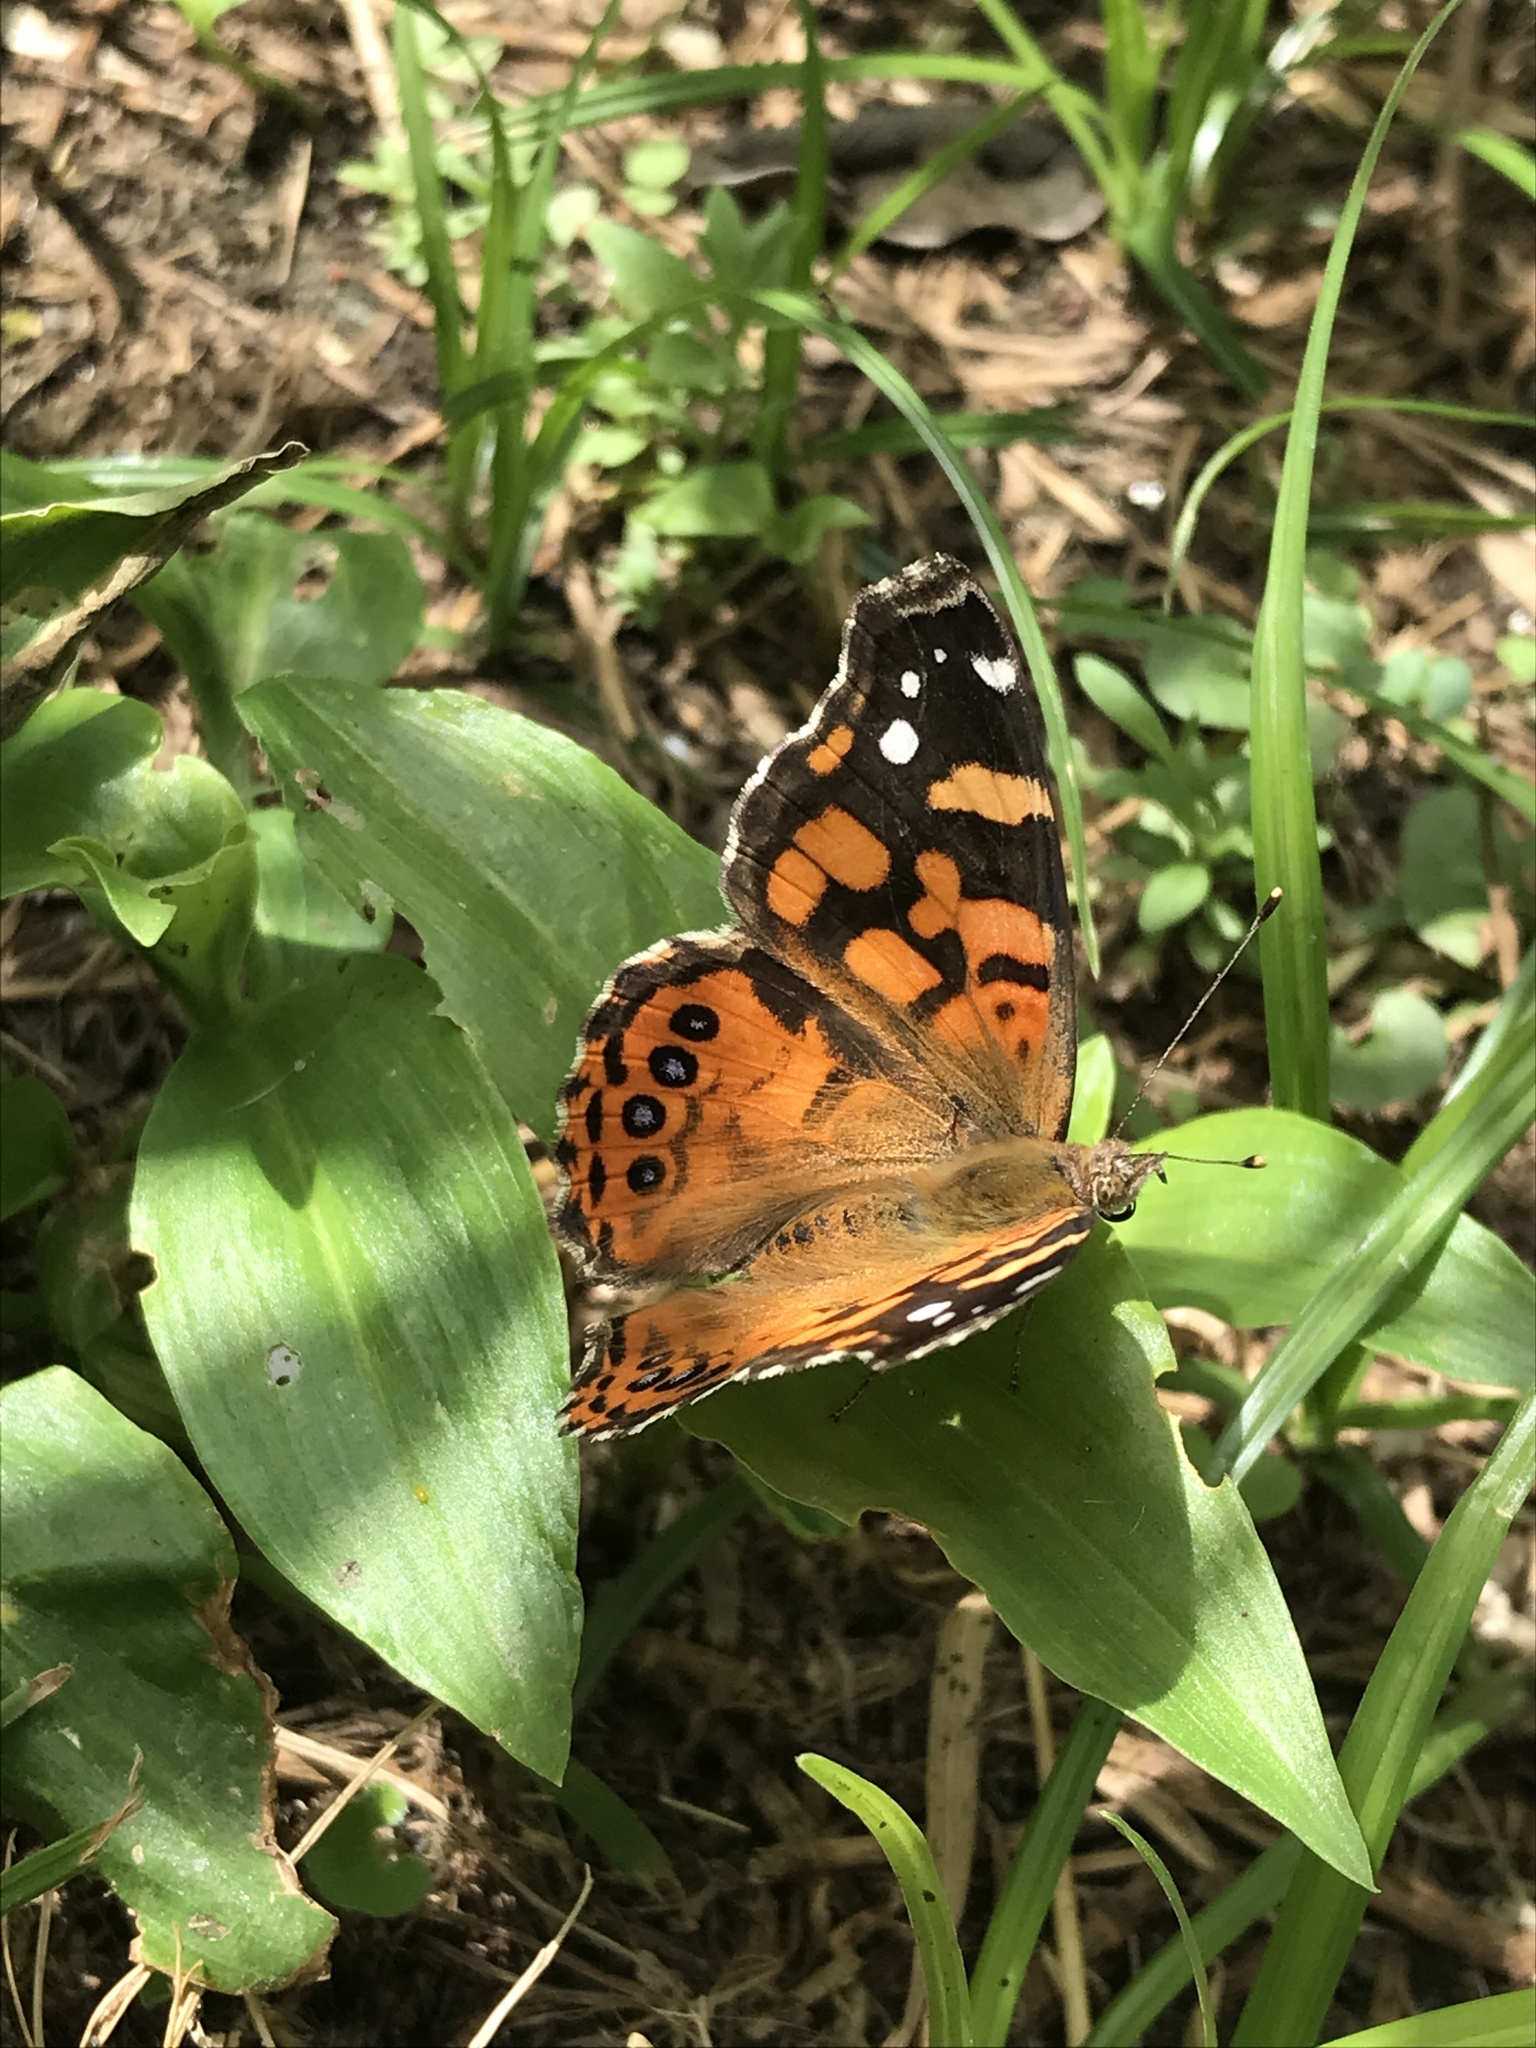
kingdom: Animalia
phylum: Arthropoda
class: Insecta
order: Lepidoptera
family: Nymphalidae
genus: Vanessa
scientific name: Vanessa carye
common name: Subtropical lady
